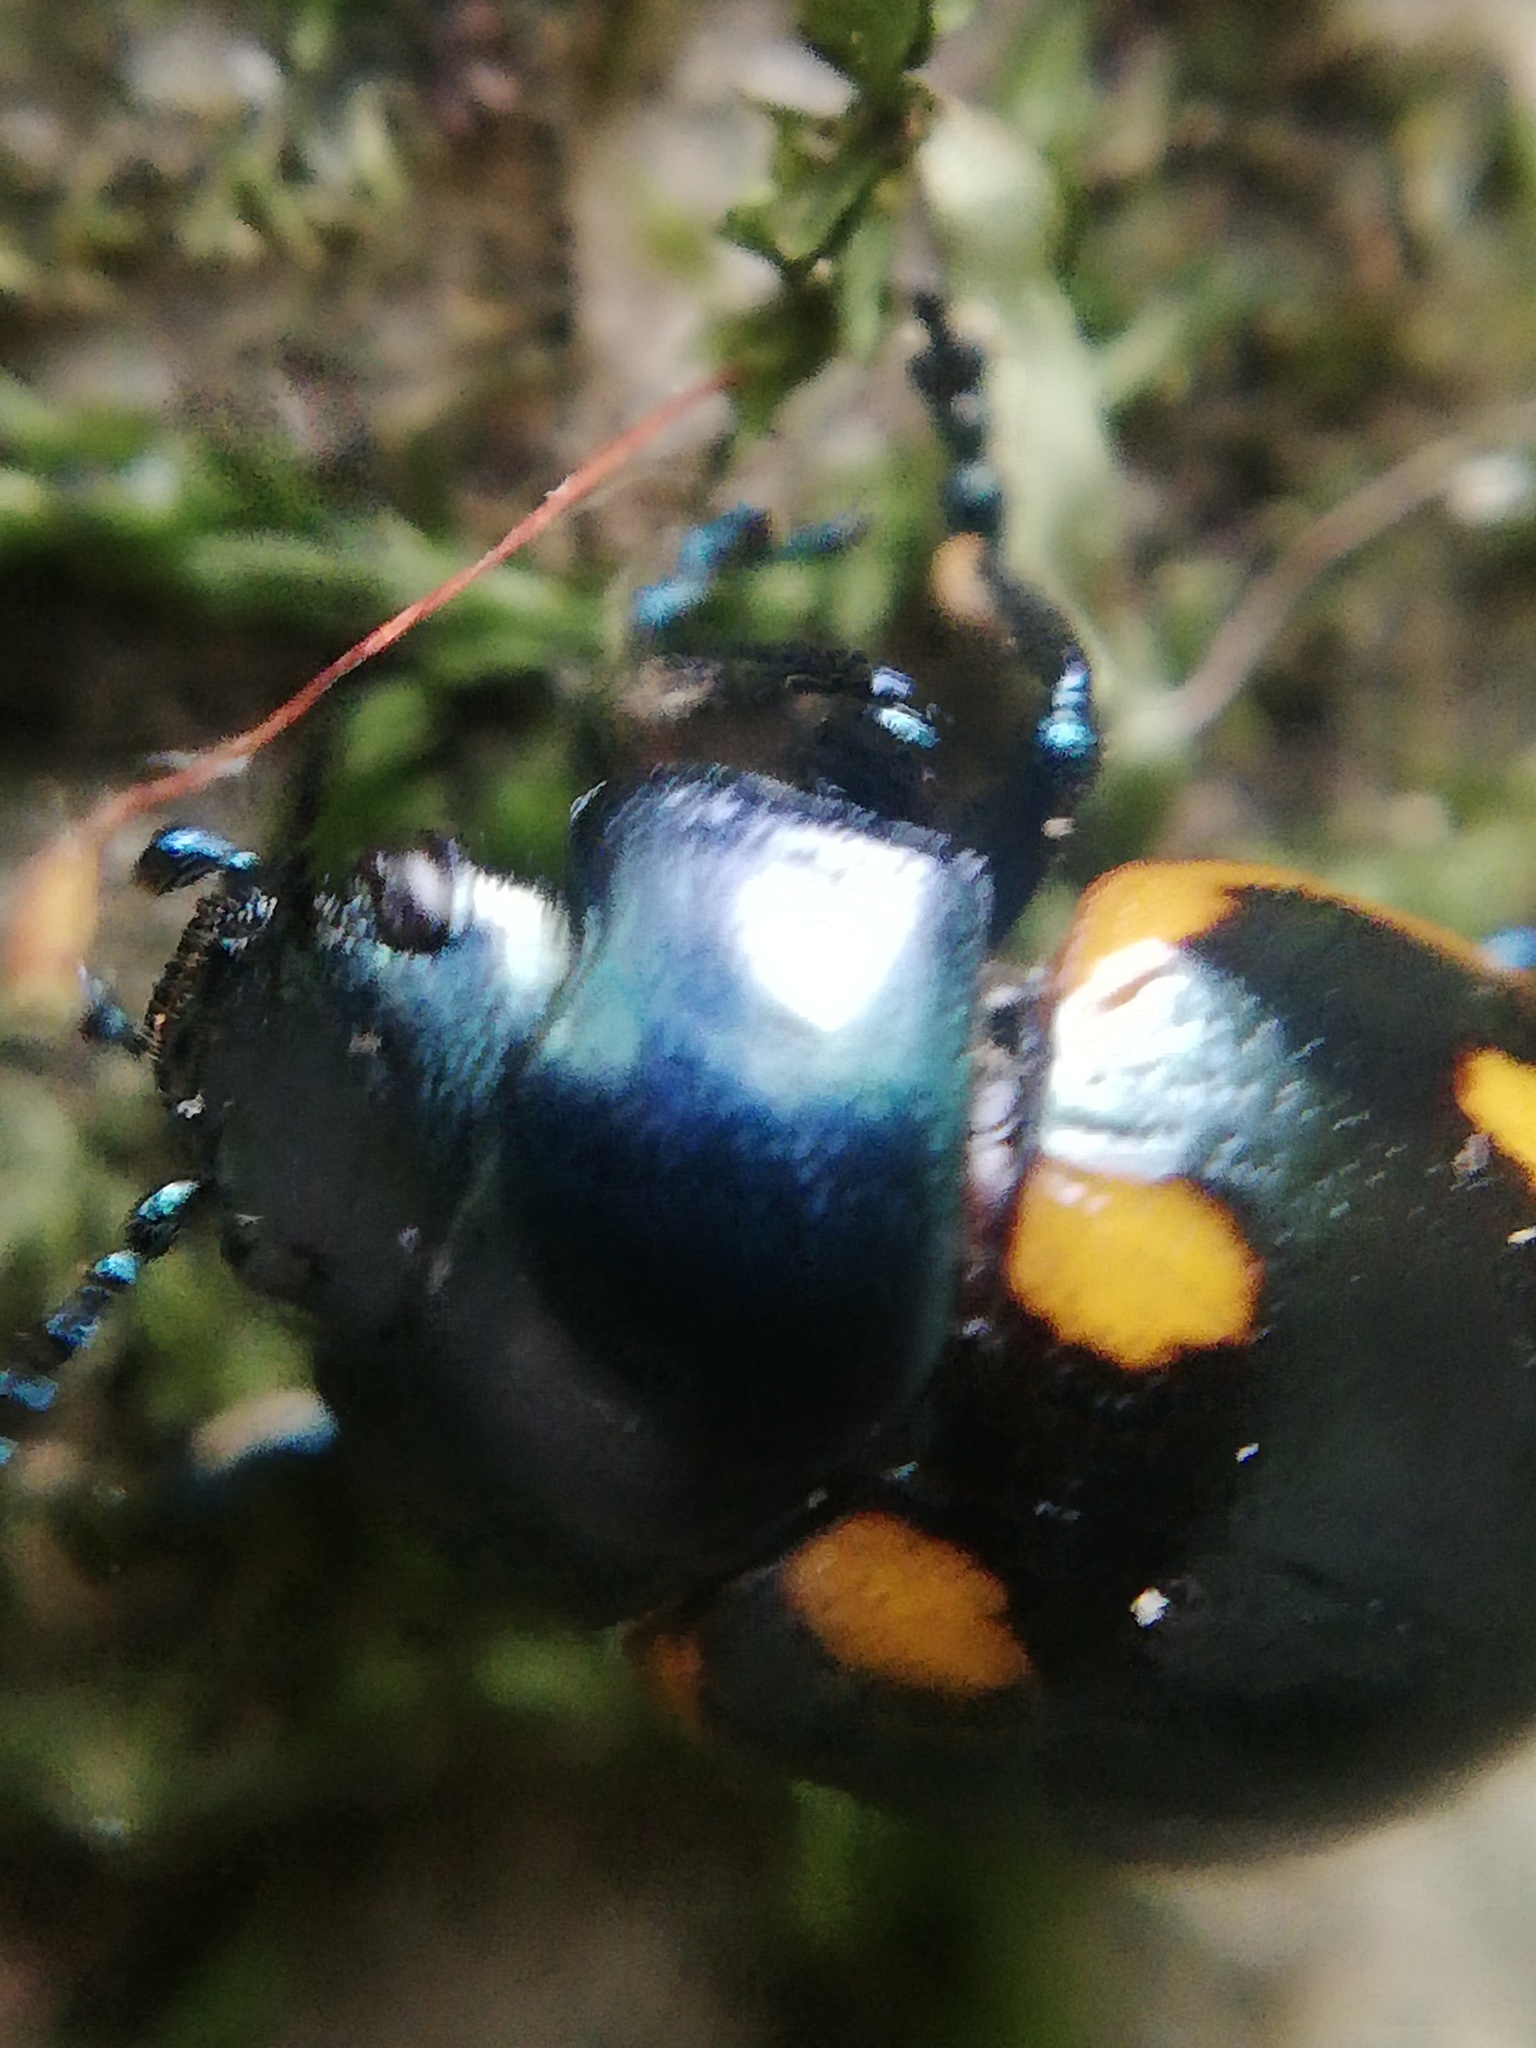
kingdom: Animalia
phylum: Arthropoda
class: Insecta
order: Coleoptera
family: Chrysomelidae
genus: Labidomera
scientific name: Labidomera
